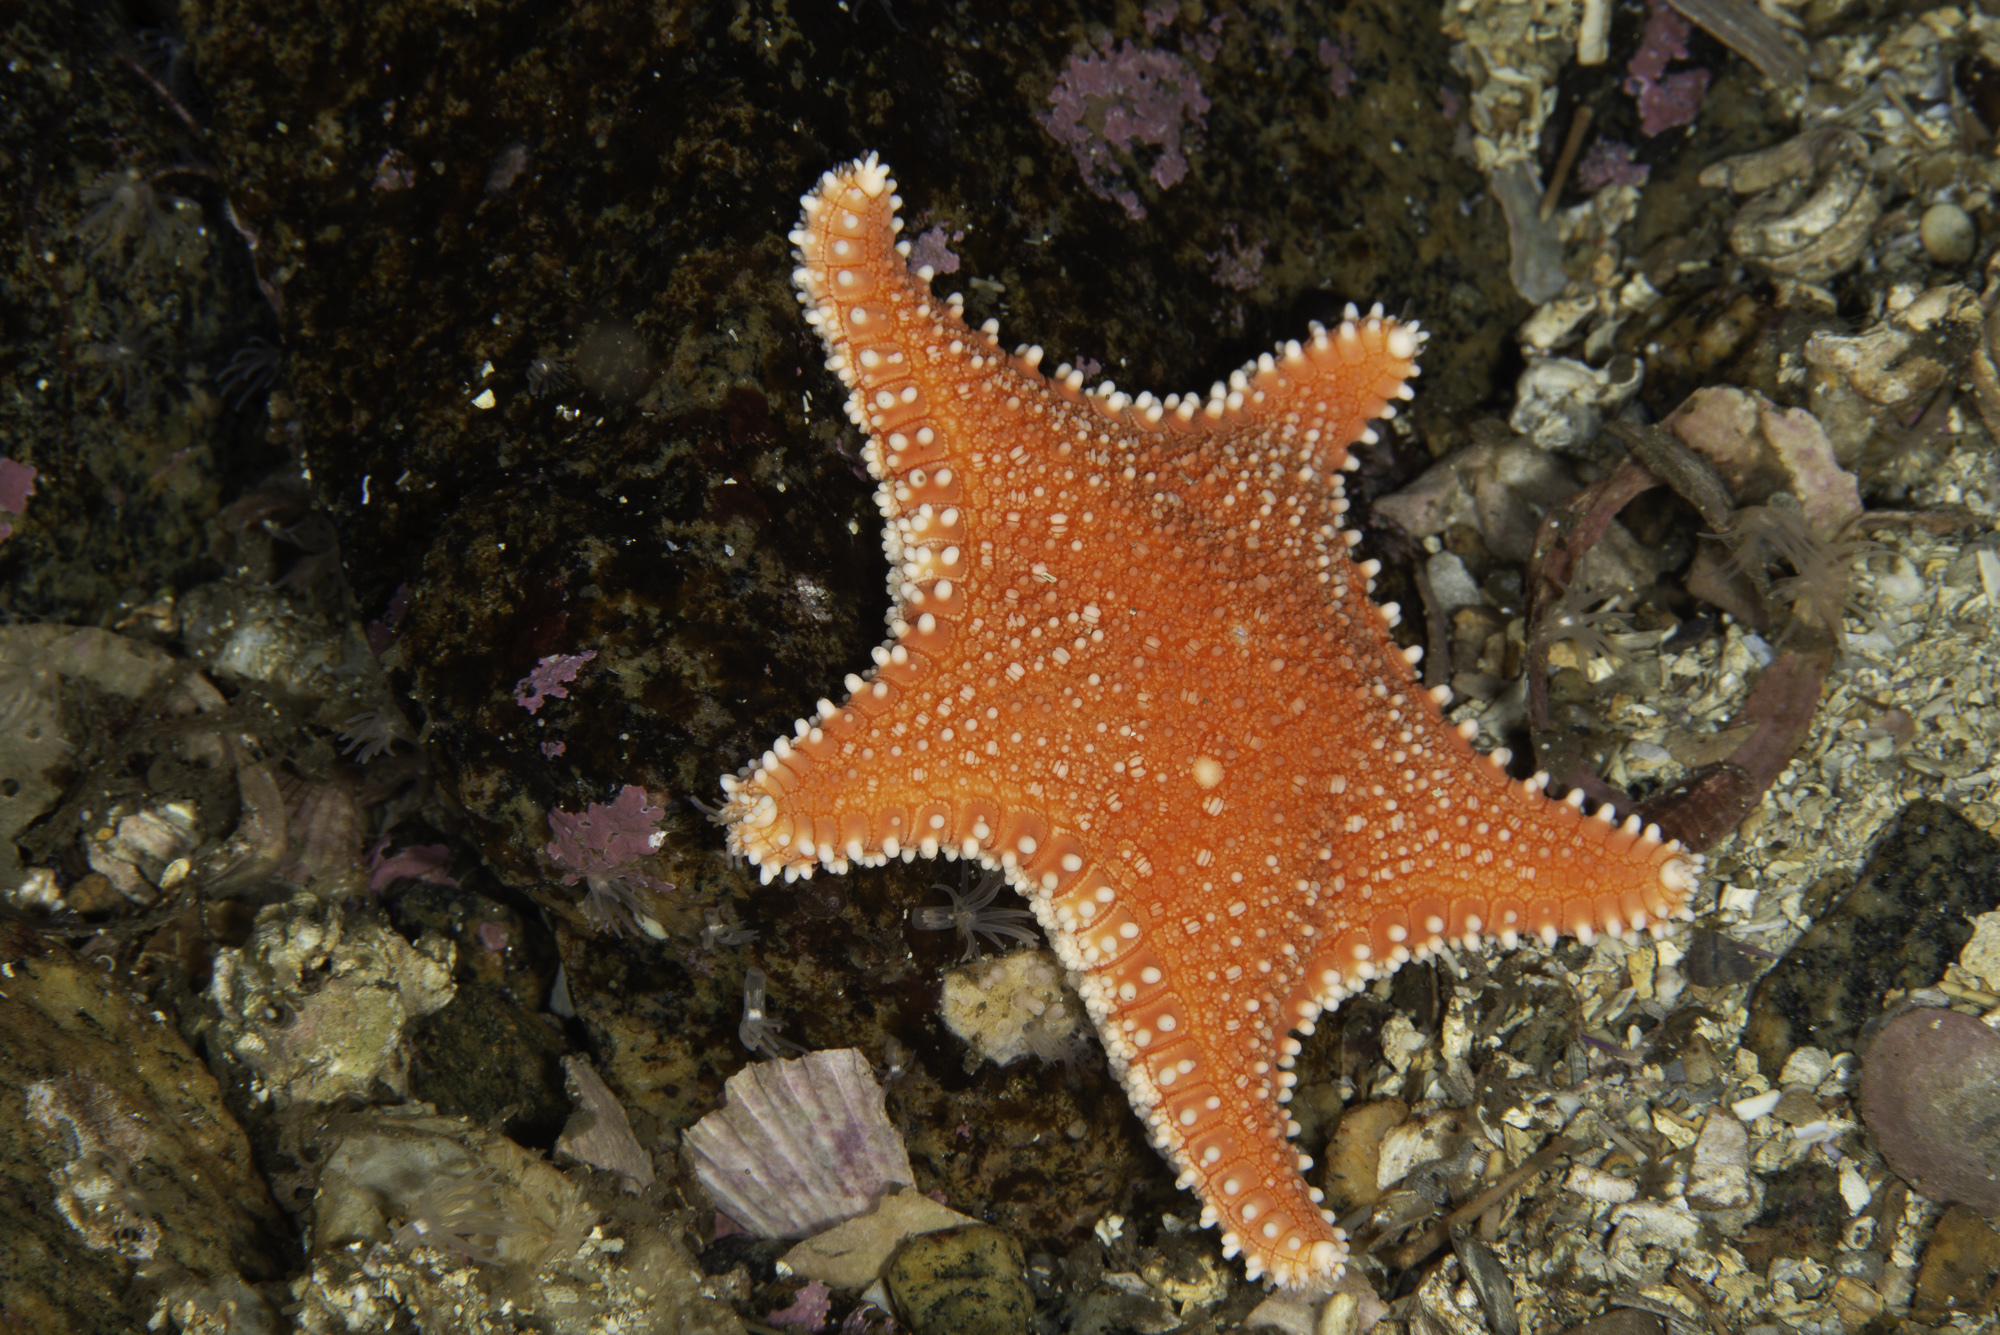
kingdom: Animalia
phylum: Echinodermata
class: Asteroidea
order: Valvatida
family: Goniasteridae
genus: Hippasteria
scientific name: Hippasteria phrygiana
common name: Arctic cushion star
